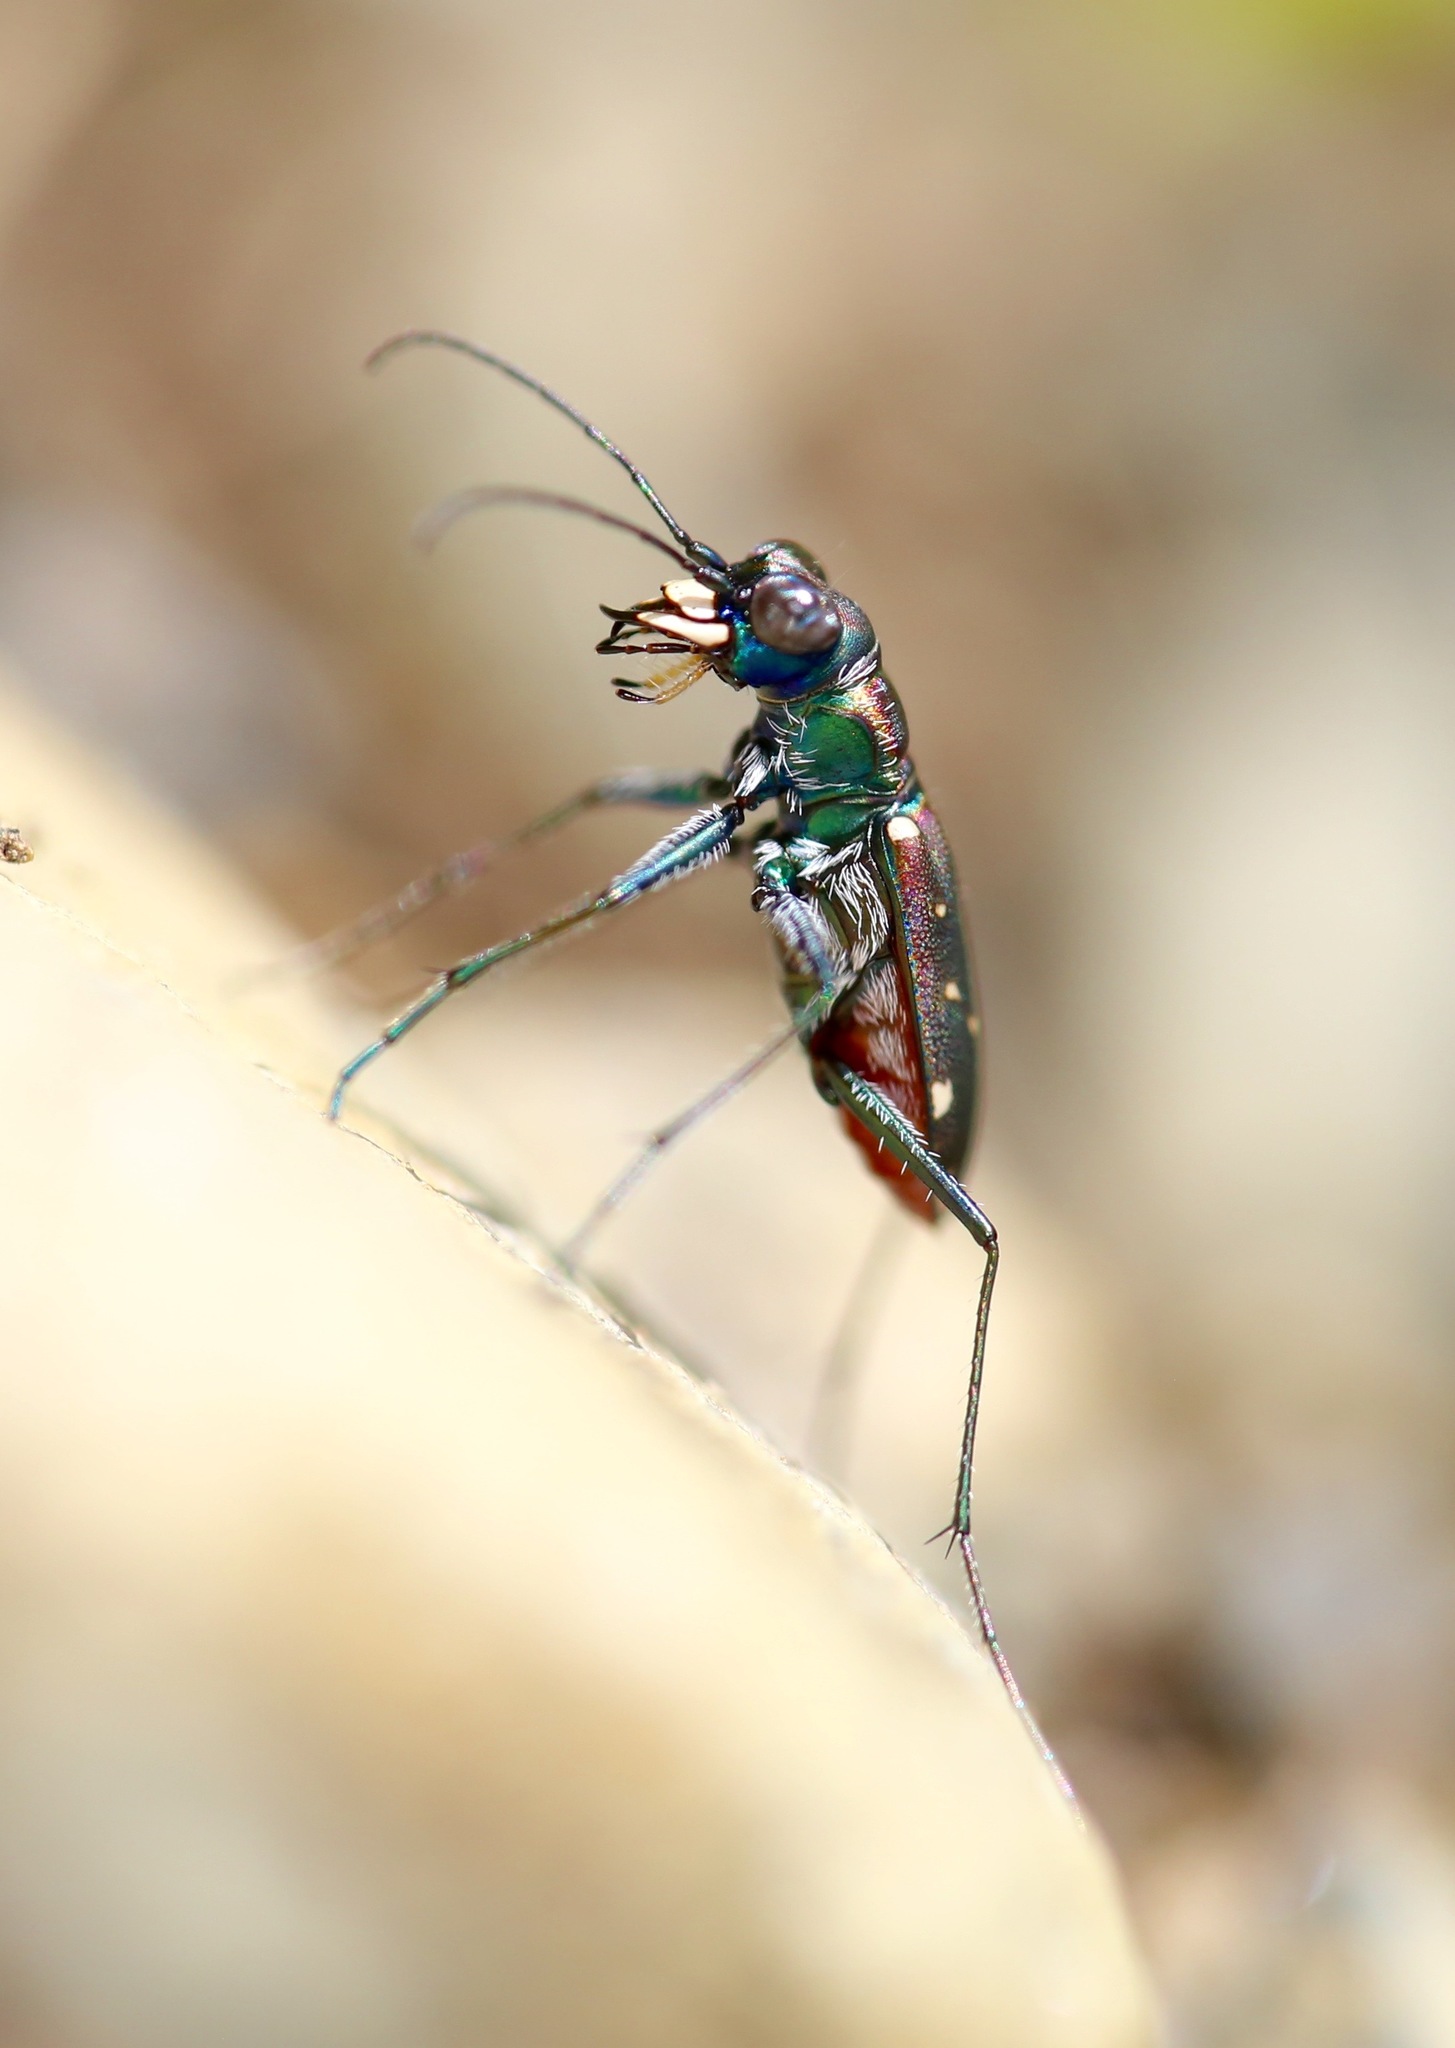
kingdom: Animalia
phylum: Arthropoda
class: Insecta
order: Coleoptera
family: Carabidae
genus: Cicindela
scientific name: Cicindela rufiventris
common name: Eastern red-bellied tiger beetle
